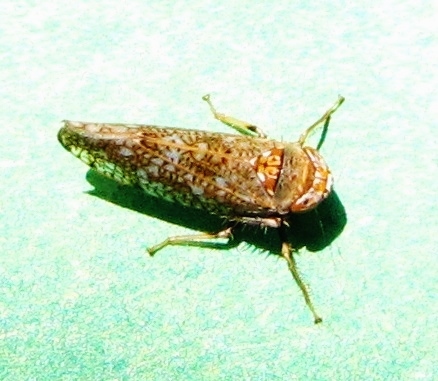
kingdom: Animalia
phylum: Arthropoda
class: Insecta
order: Hemiptera
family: Cicadellidae
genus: Orientus
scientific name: Orientus ishidae
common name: Japanese leafhopper
